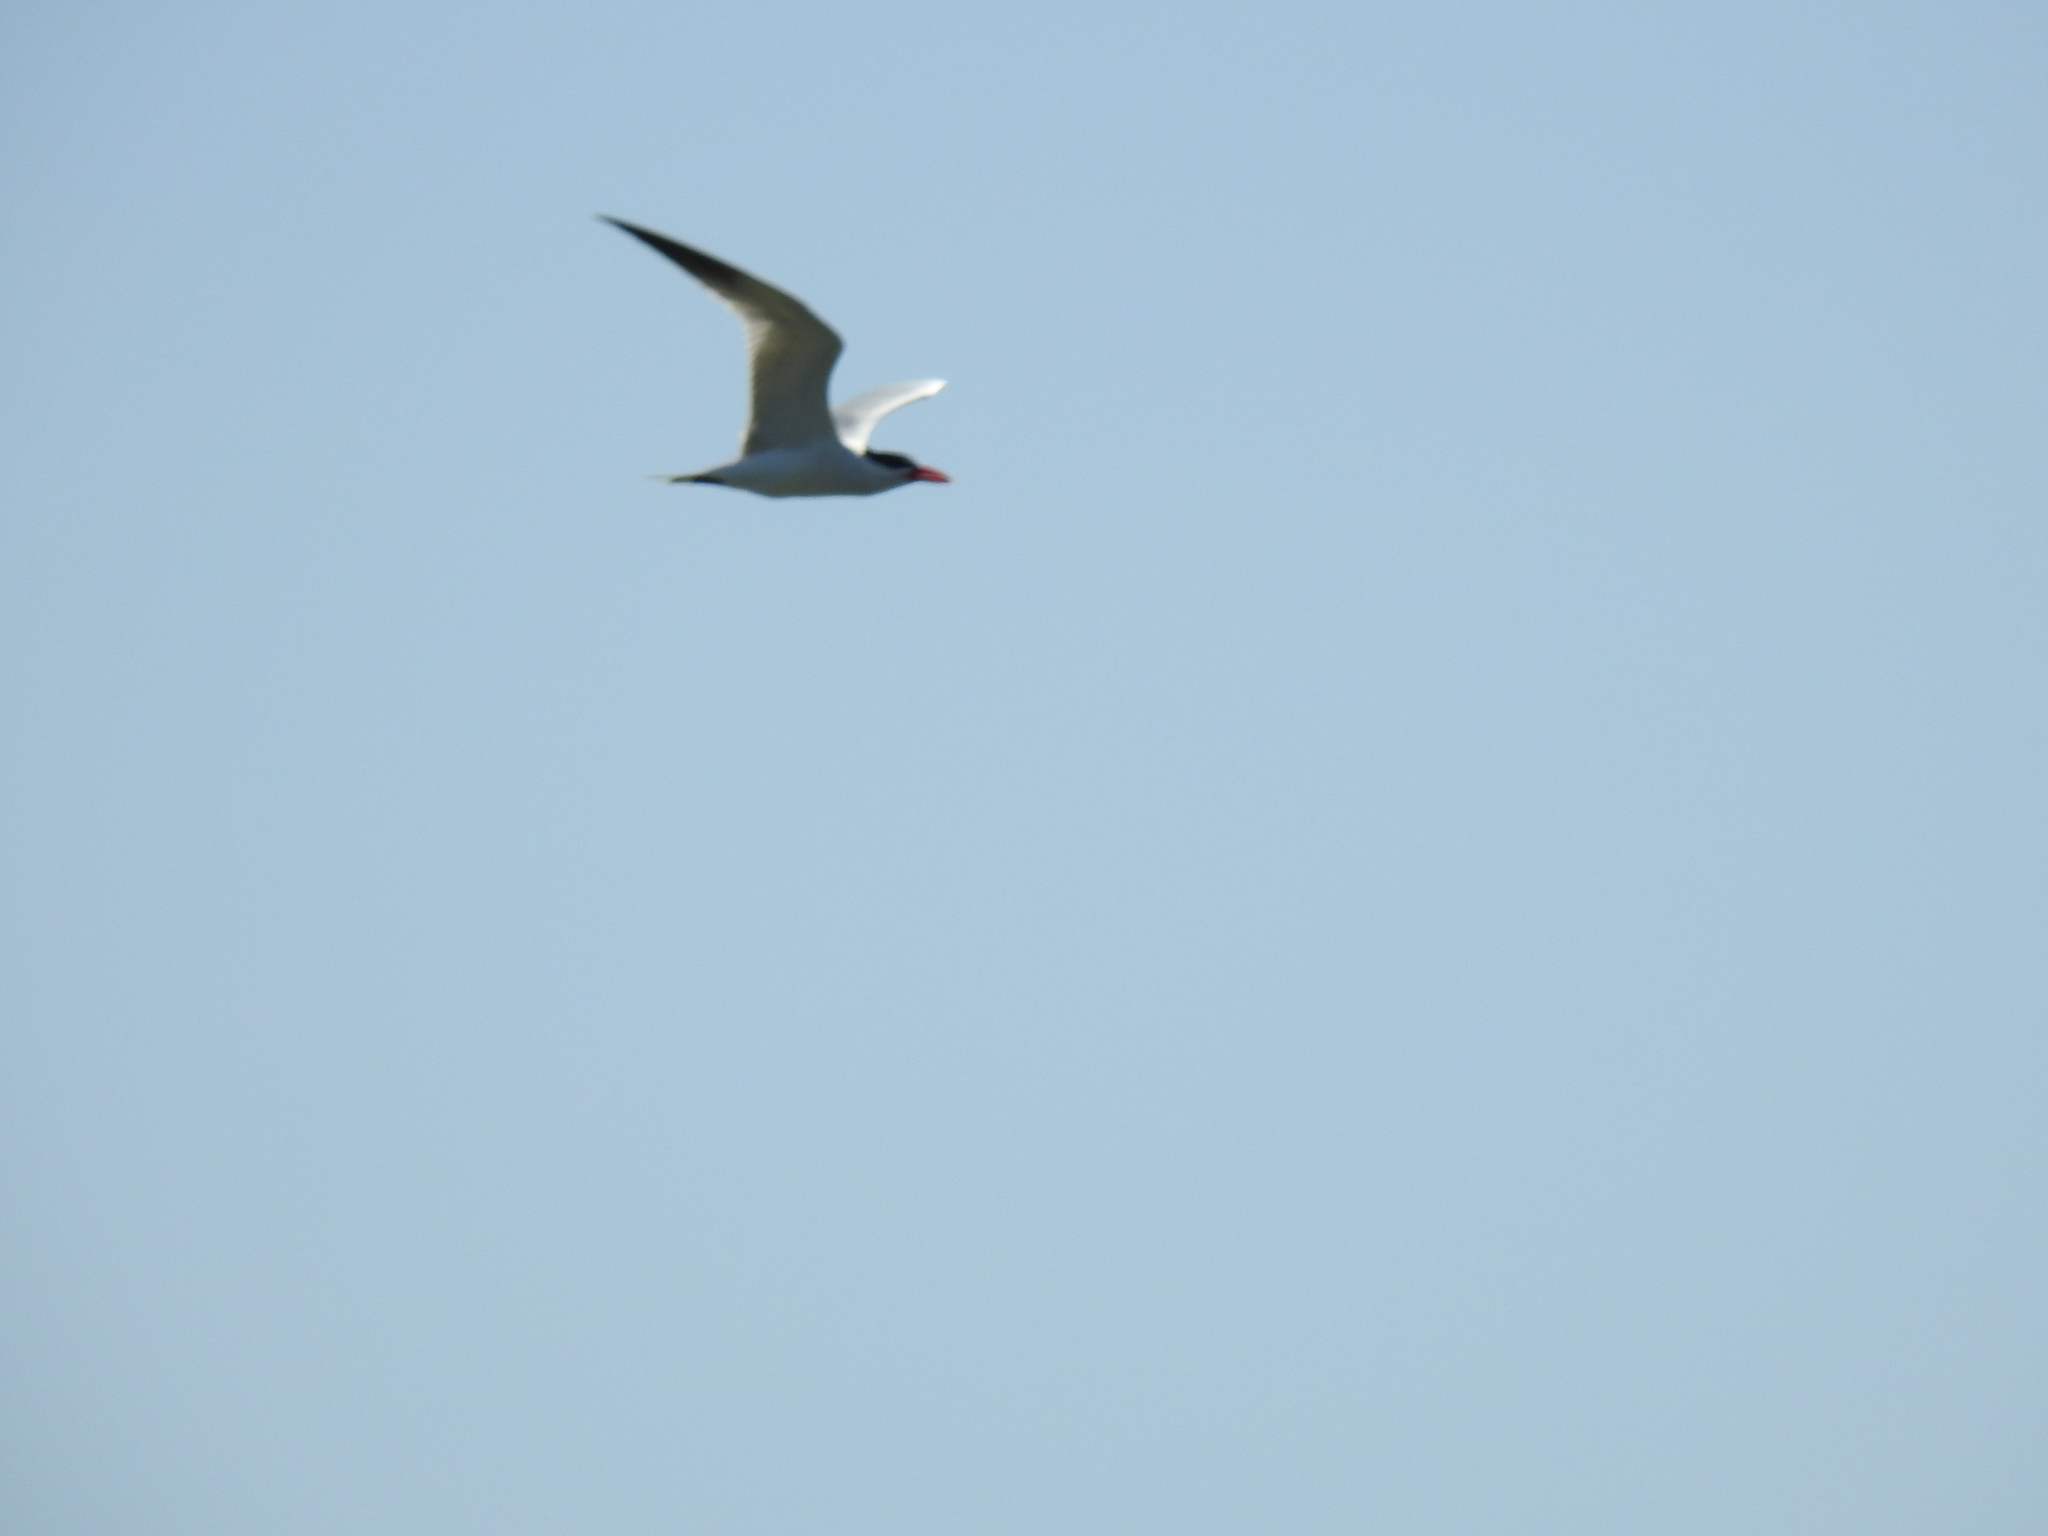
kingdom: Animalia
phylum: Chordata
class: Aves
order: Charadriiformes
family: Laridae
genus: Hydroprogne
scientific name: Hydroprogne caspia
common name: Caspian tern
